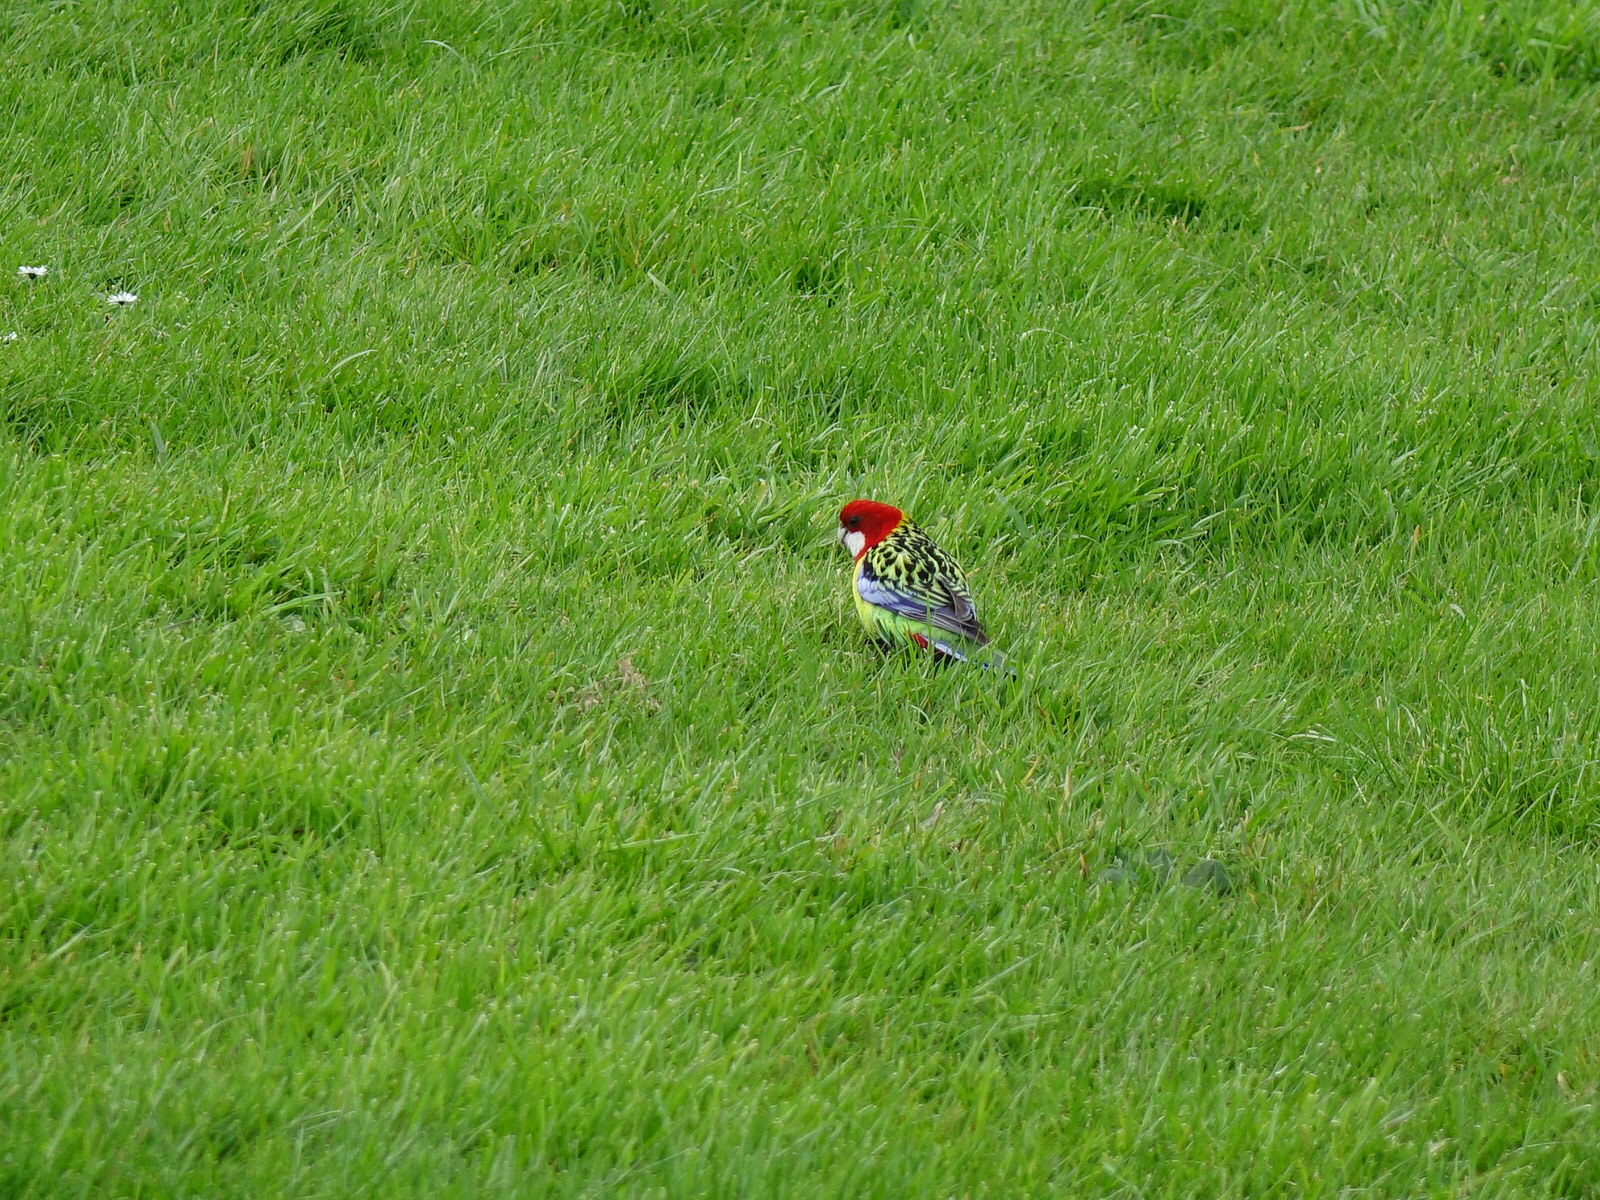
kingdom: Animalia
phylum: Chordata
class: Aves
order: Psittaciformes
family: Psittacidae
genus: Platycercus
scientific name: Platycercus eximius
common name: Eastern rosella
